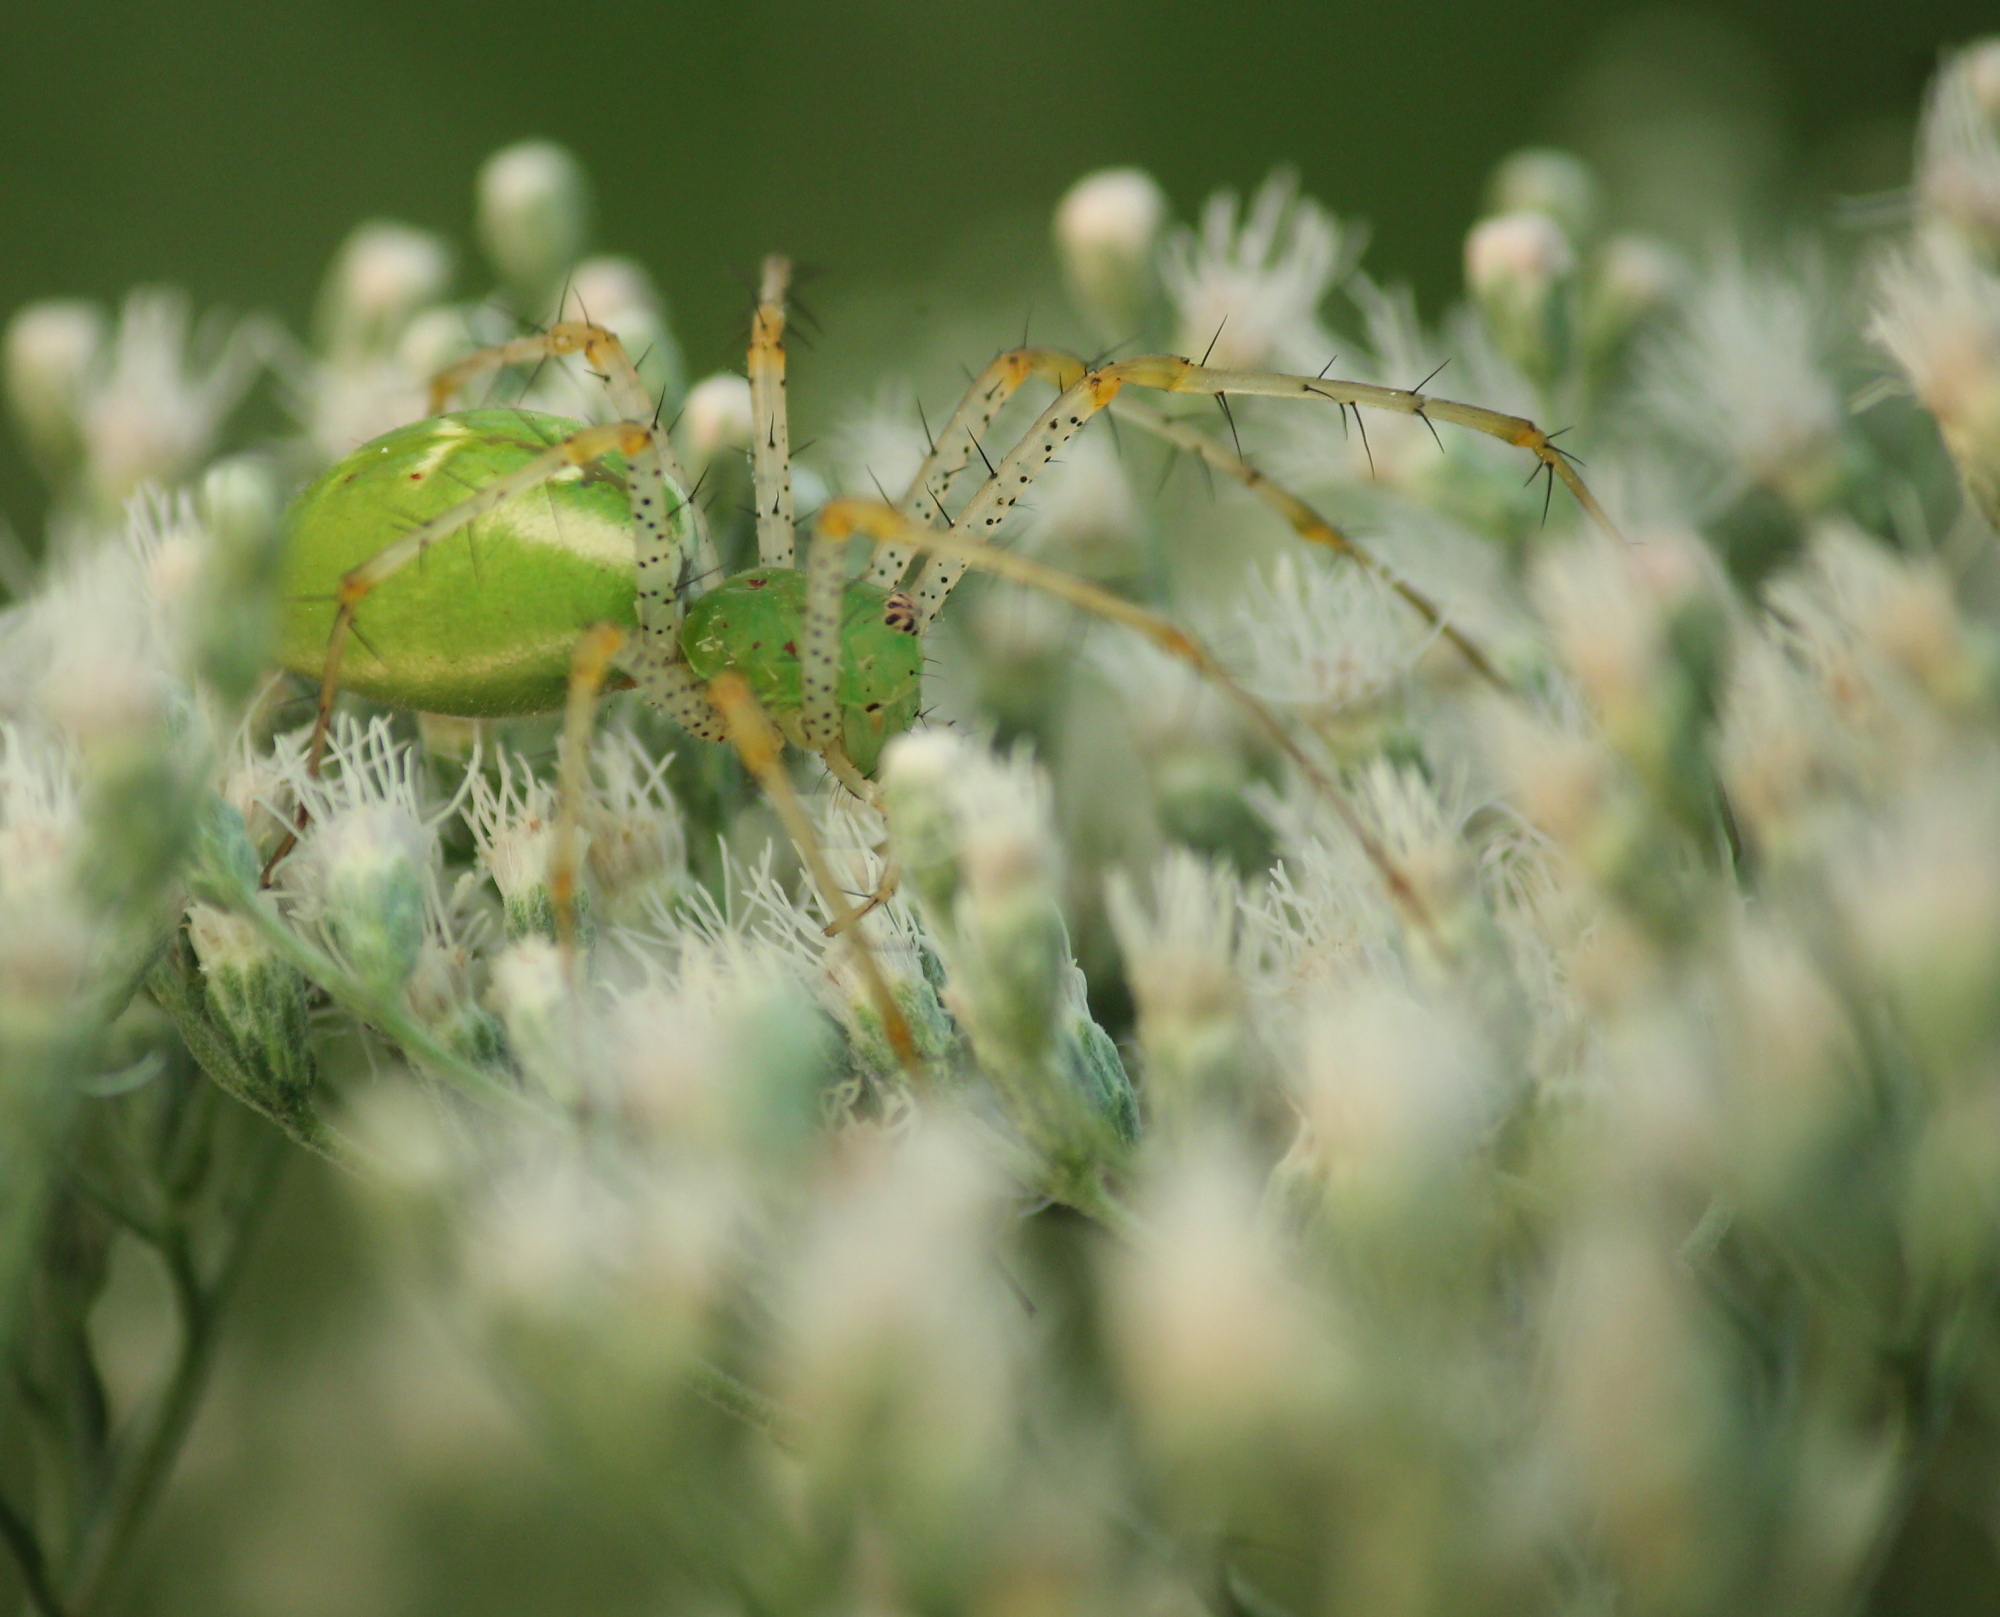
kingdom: Animalia
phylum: Arthropoda
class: Arachnida
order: Araneae
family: Oxyopidae
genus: Peucetia
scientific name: Peucetia viridans
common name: Lynx spiders
